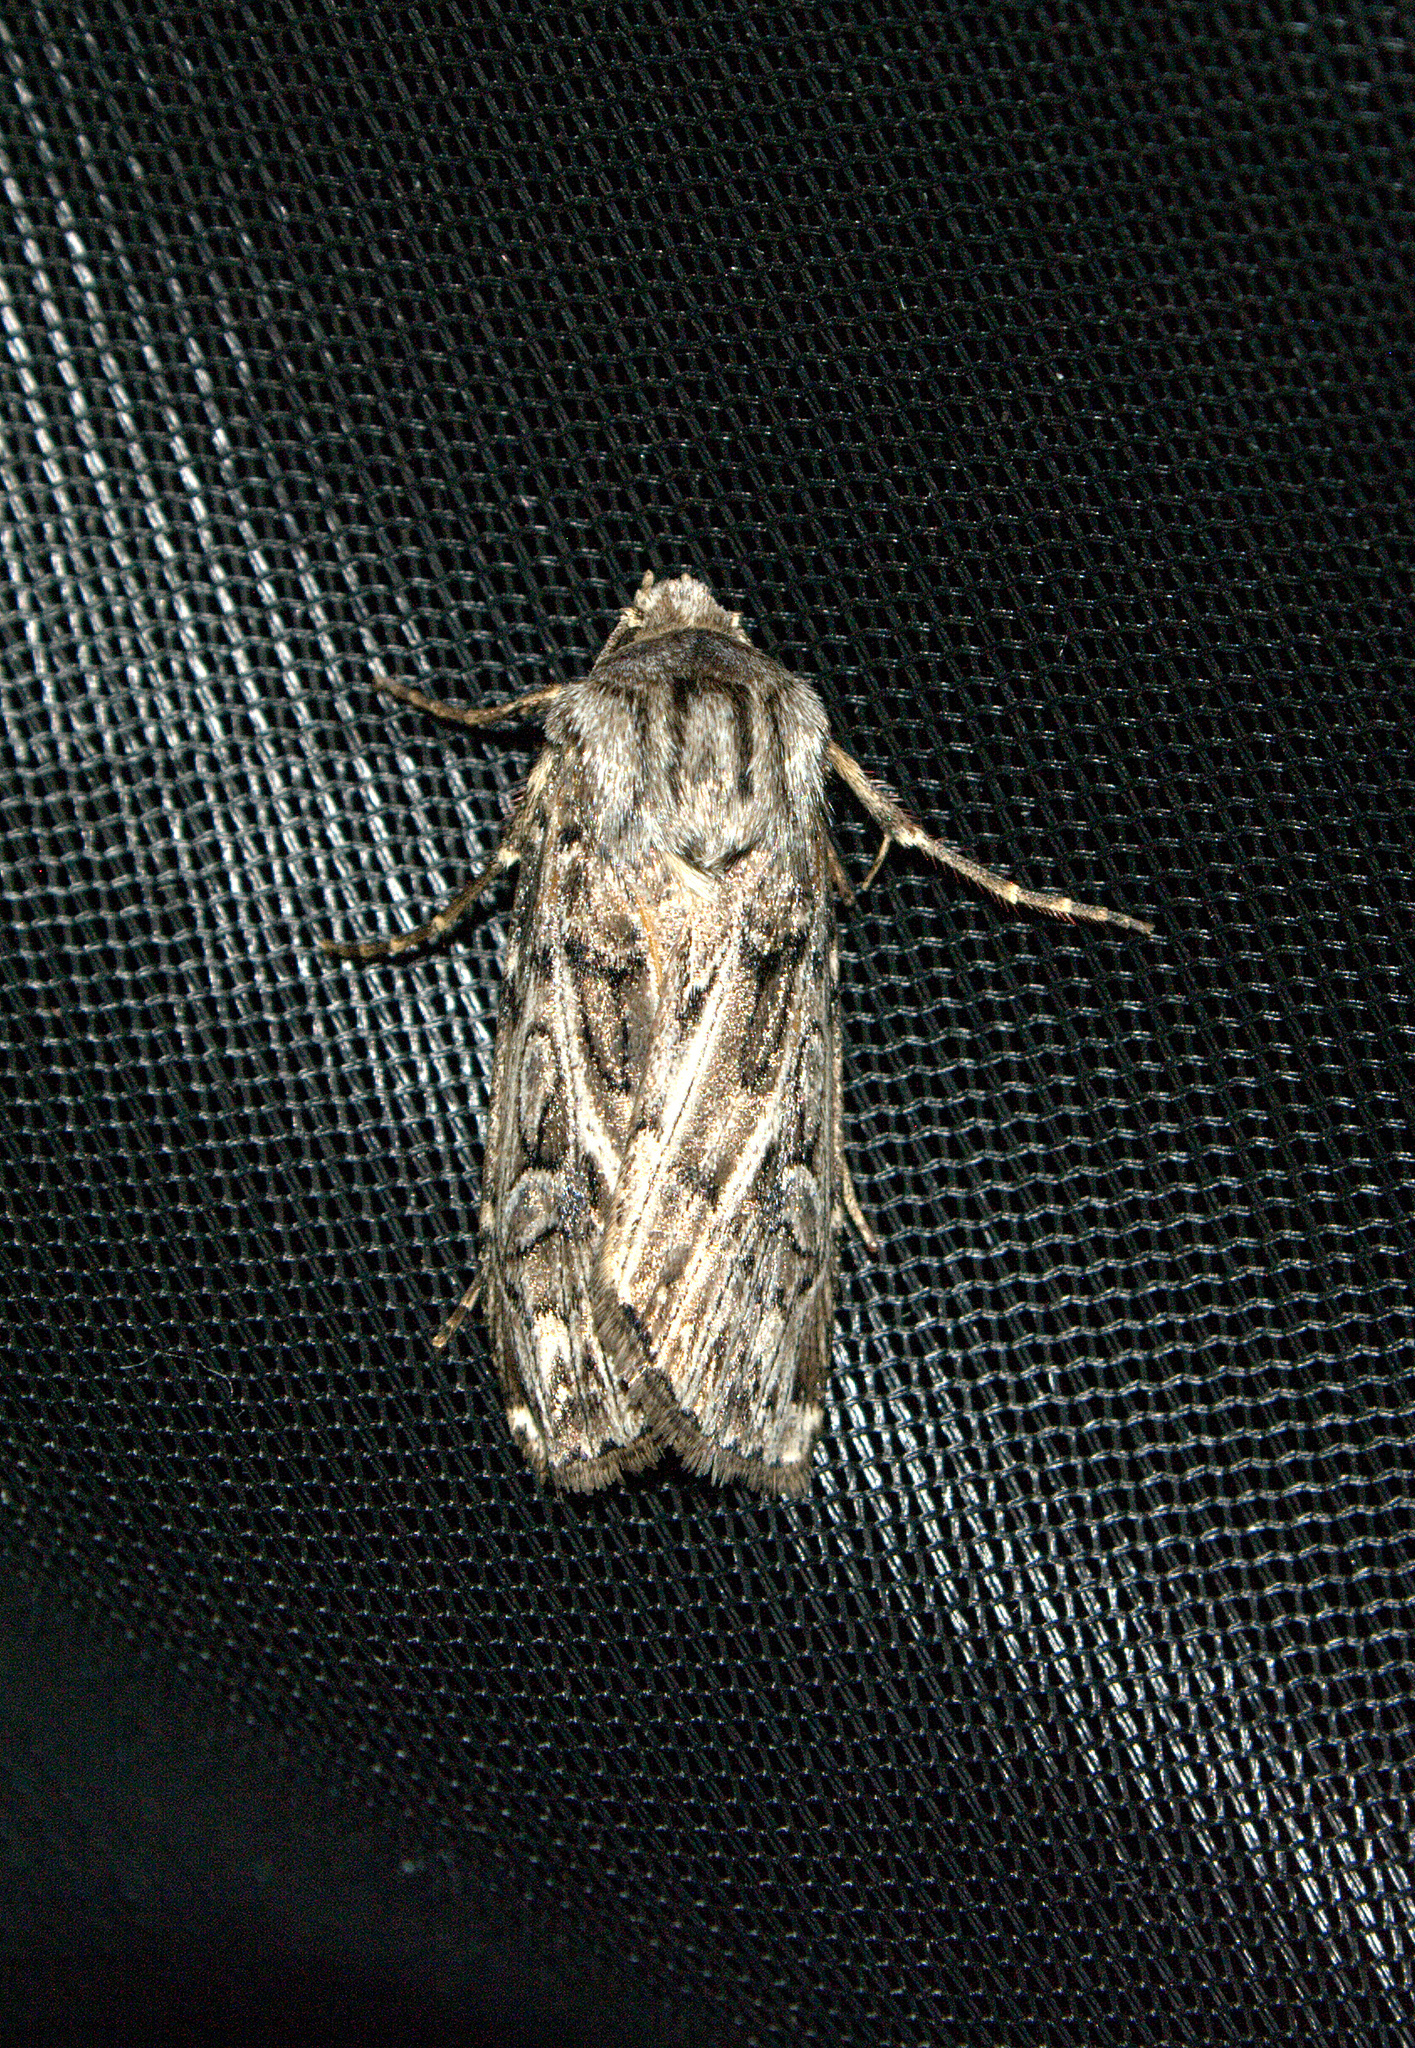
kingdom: Animalia
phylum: Arthropoda
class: Insecta
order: Lepidoptera
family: Noctuidae
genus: Agrotis
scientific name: Agrotis robustior
